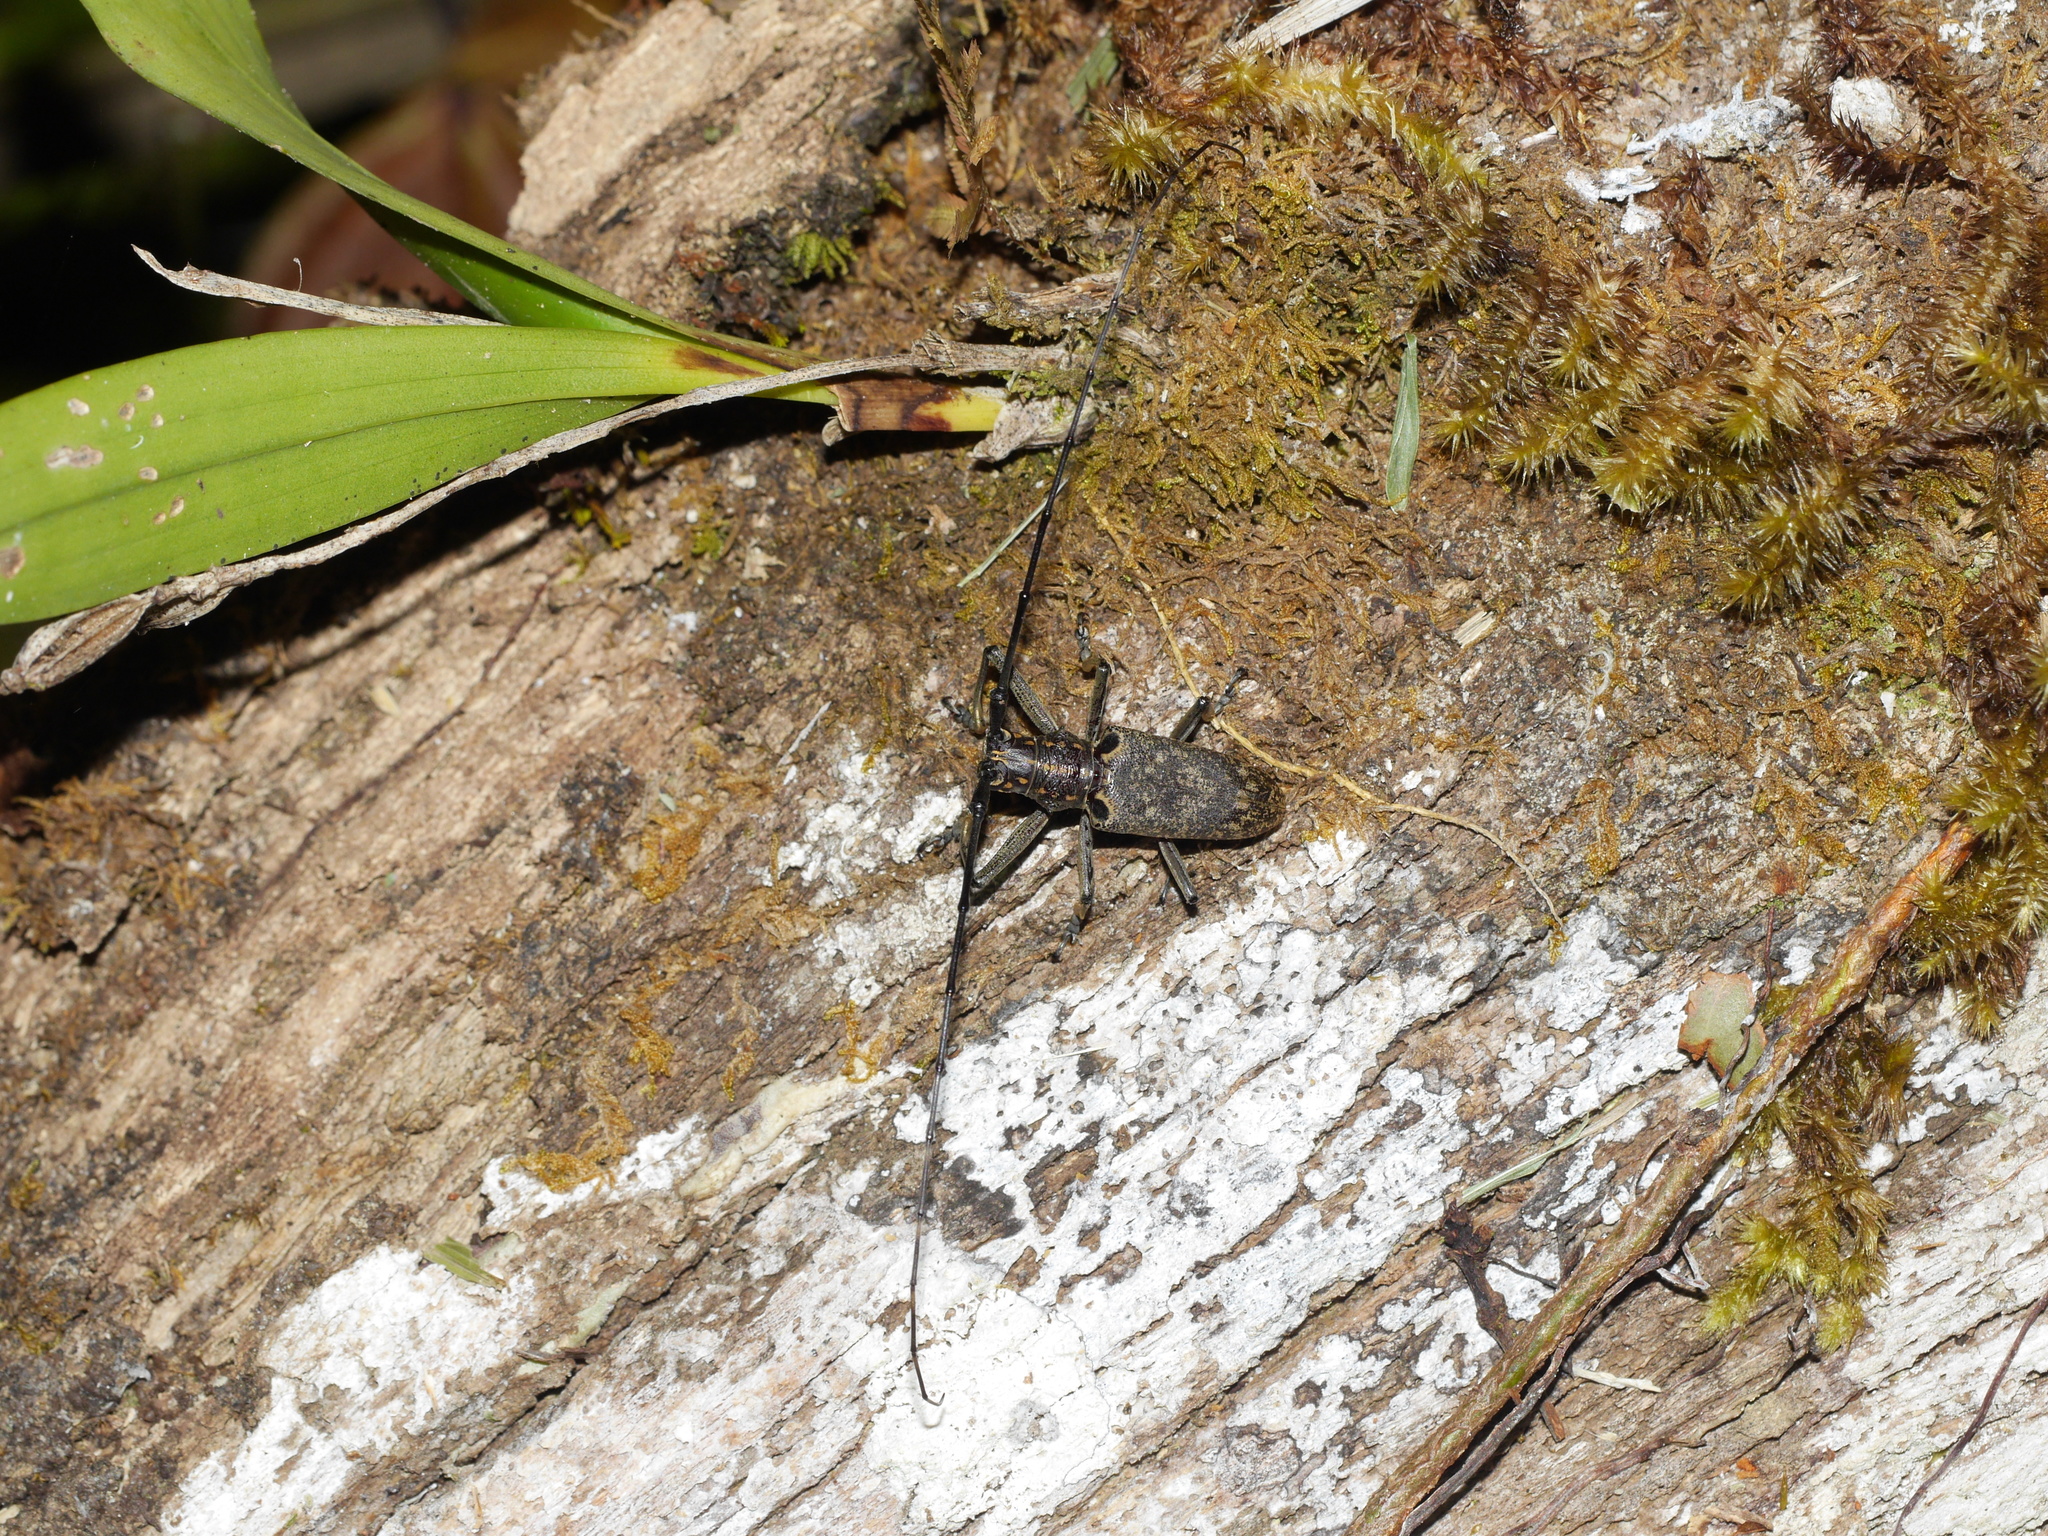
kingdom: Animalia
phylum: Arthropoda
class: Insecta
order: Coleoptera
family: Cerambycidae
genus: Epepeotes
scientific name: Epepeotes luscus
